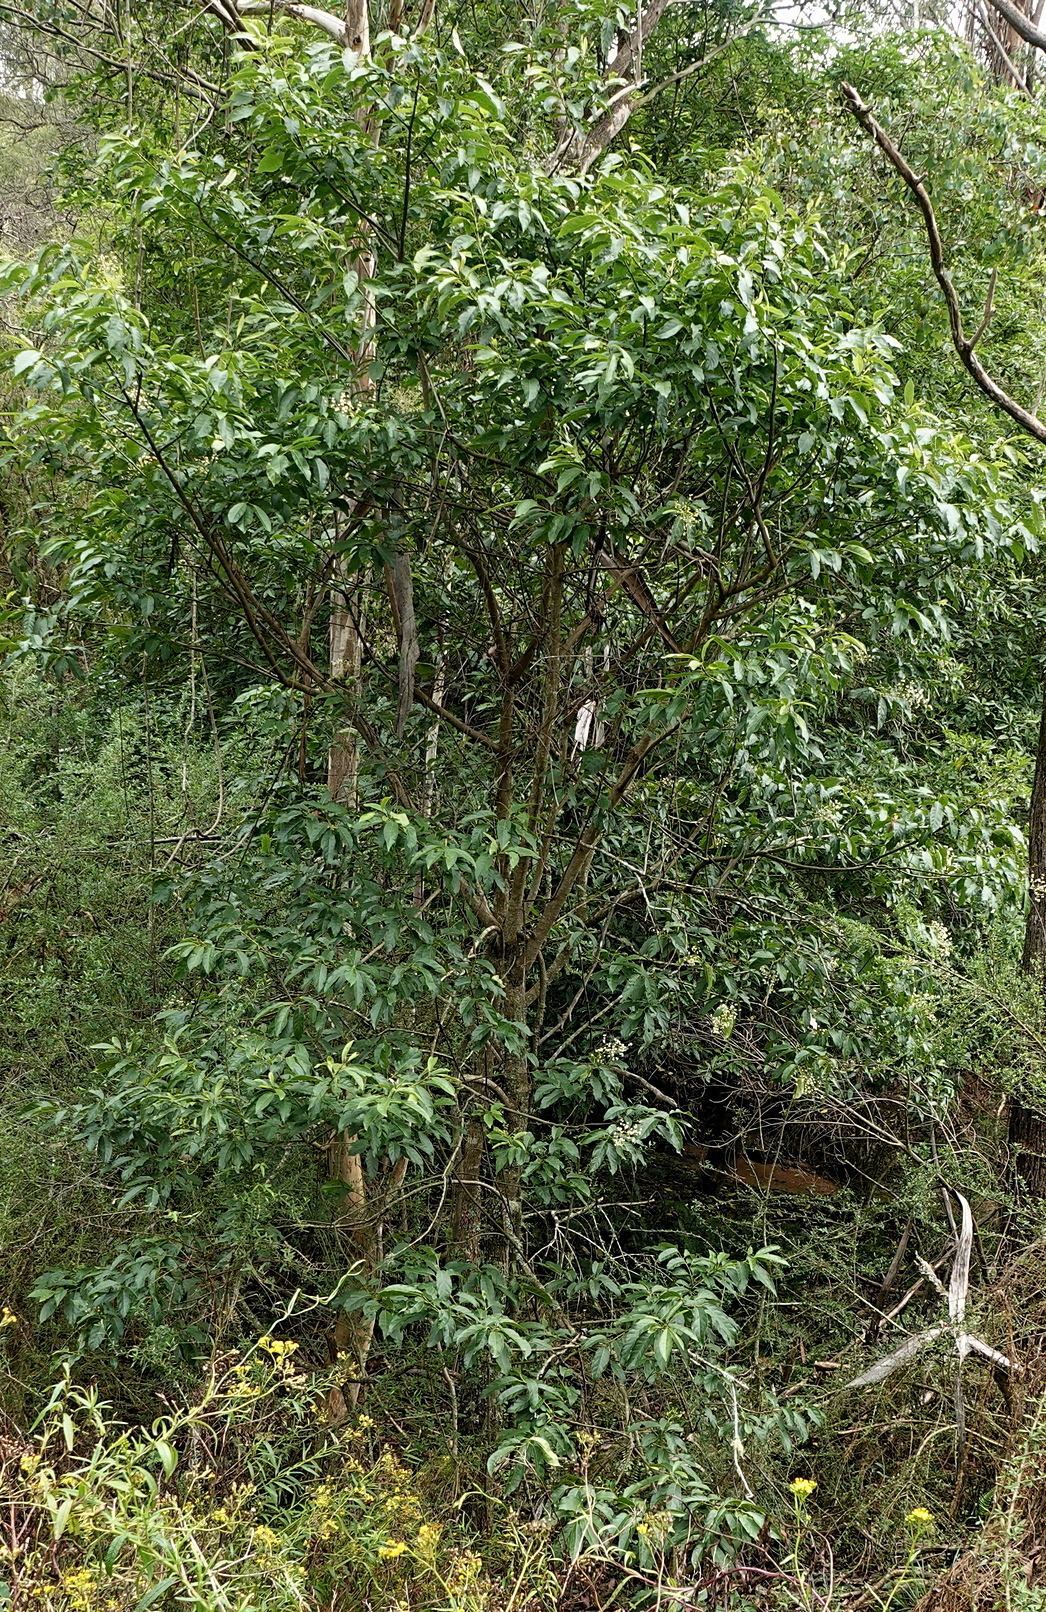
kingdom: Plantae
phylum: Tracheophyta
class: Magnoliopsida
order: Boraginales
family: Ehretiaceae
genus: Ehretia
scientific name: Ehretia acuminata
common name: Kodo wood
